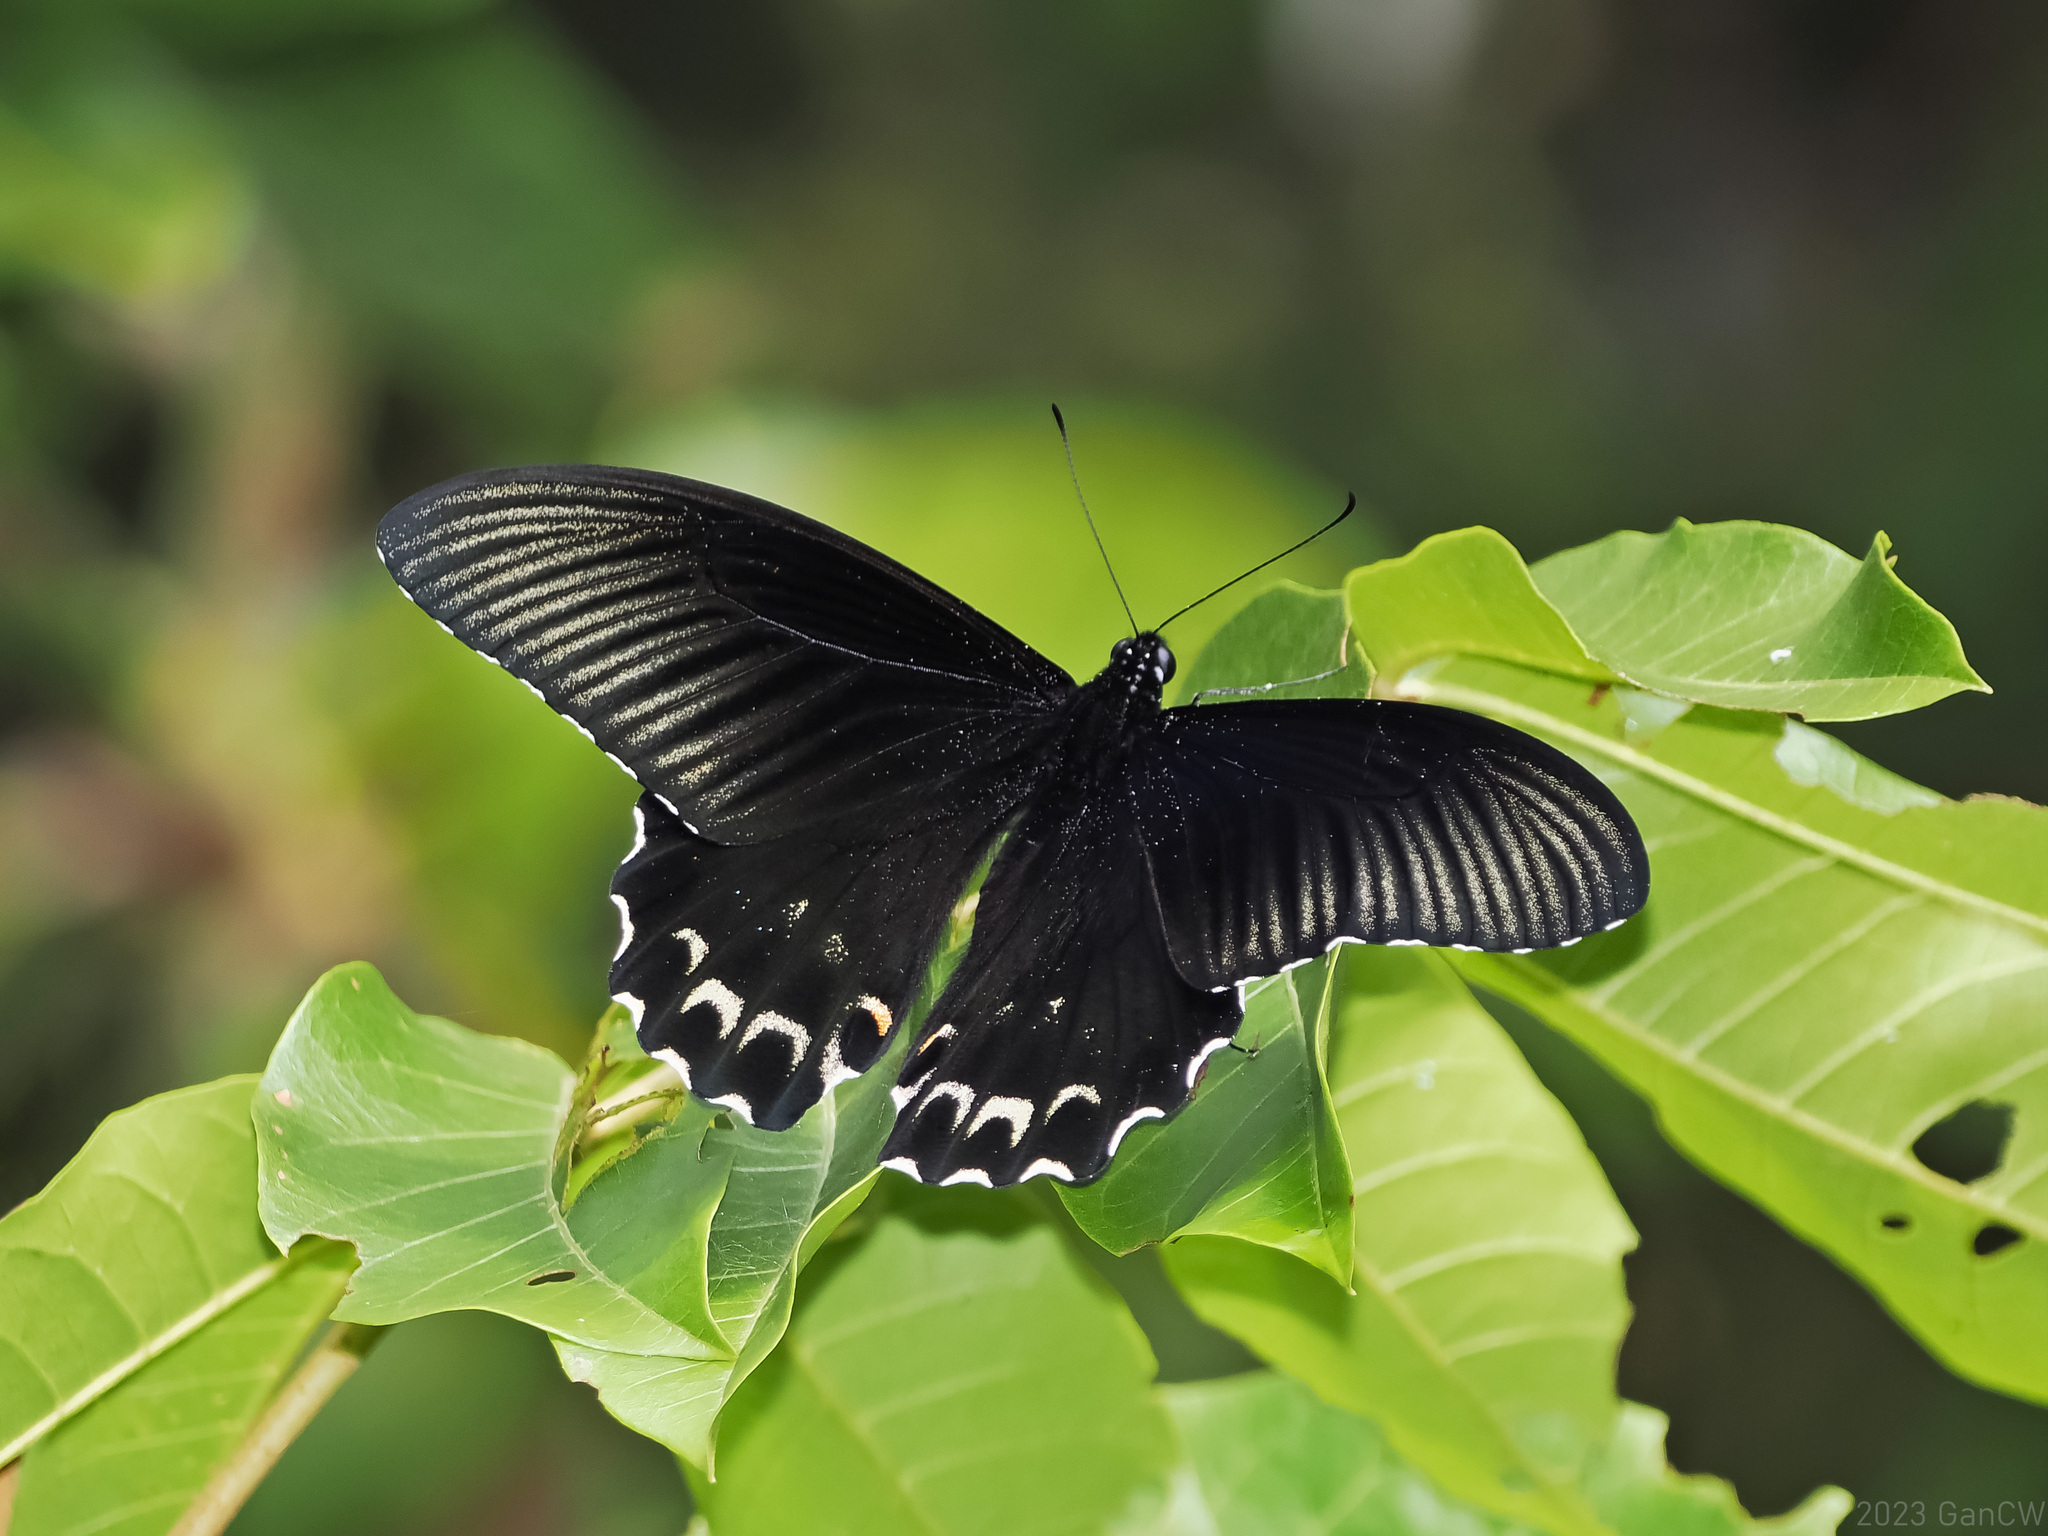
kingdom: Animalia
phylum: Arthropoda
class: Insecta
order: Lepidoptera
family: Papilionidae
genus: Papilio
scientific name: Papilio forbesi
